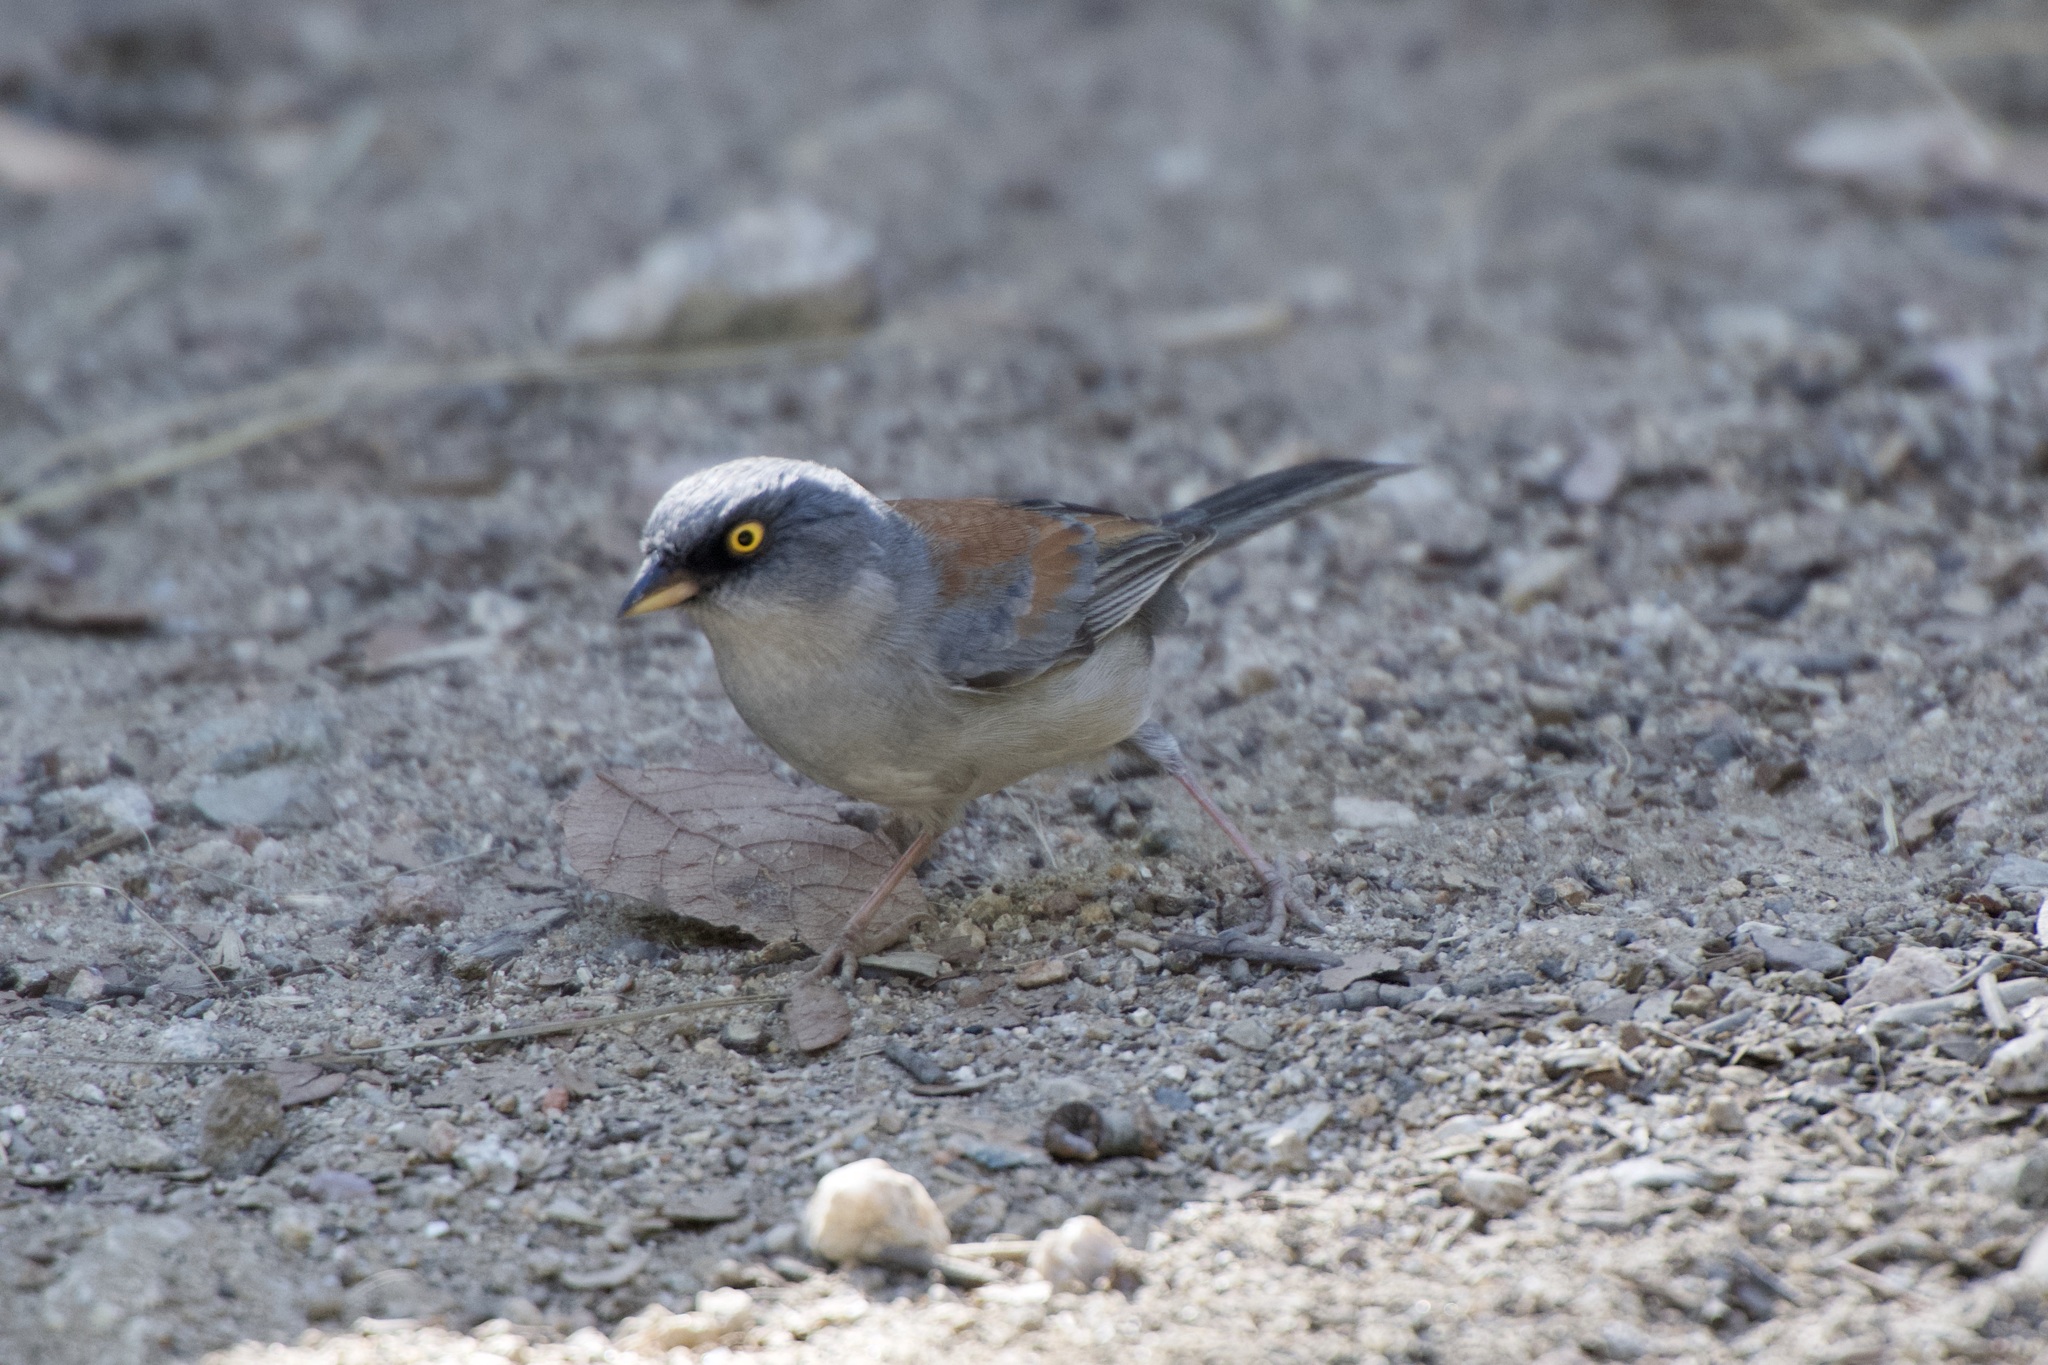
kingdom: Animalia
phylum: Chordata
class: Aves
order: Passeriformes
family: Passerellidae
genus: Junco
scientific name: Junco phaeonotus
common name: Yellow-eyed junco
